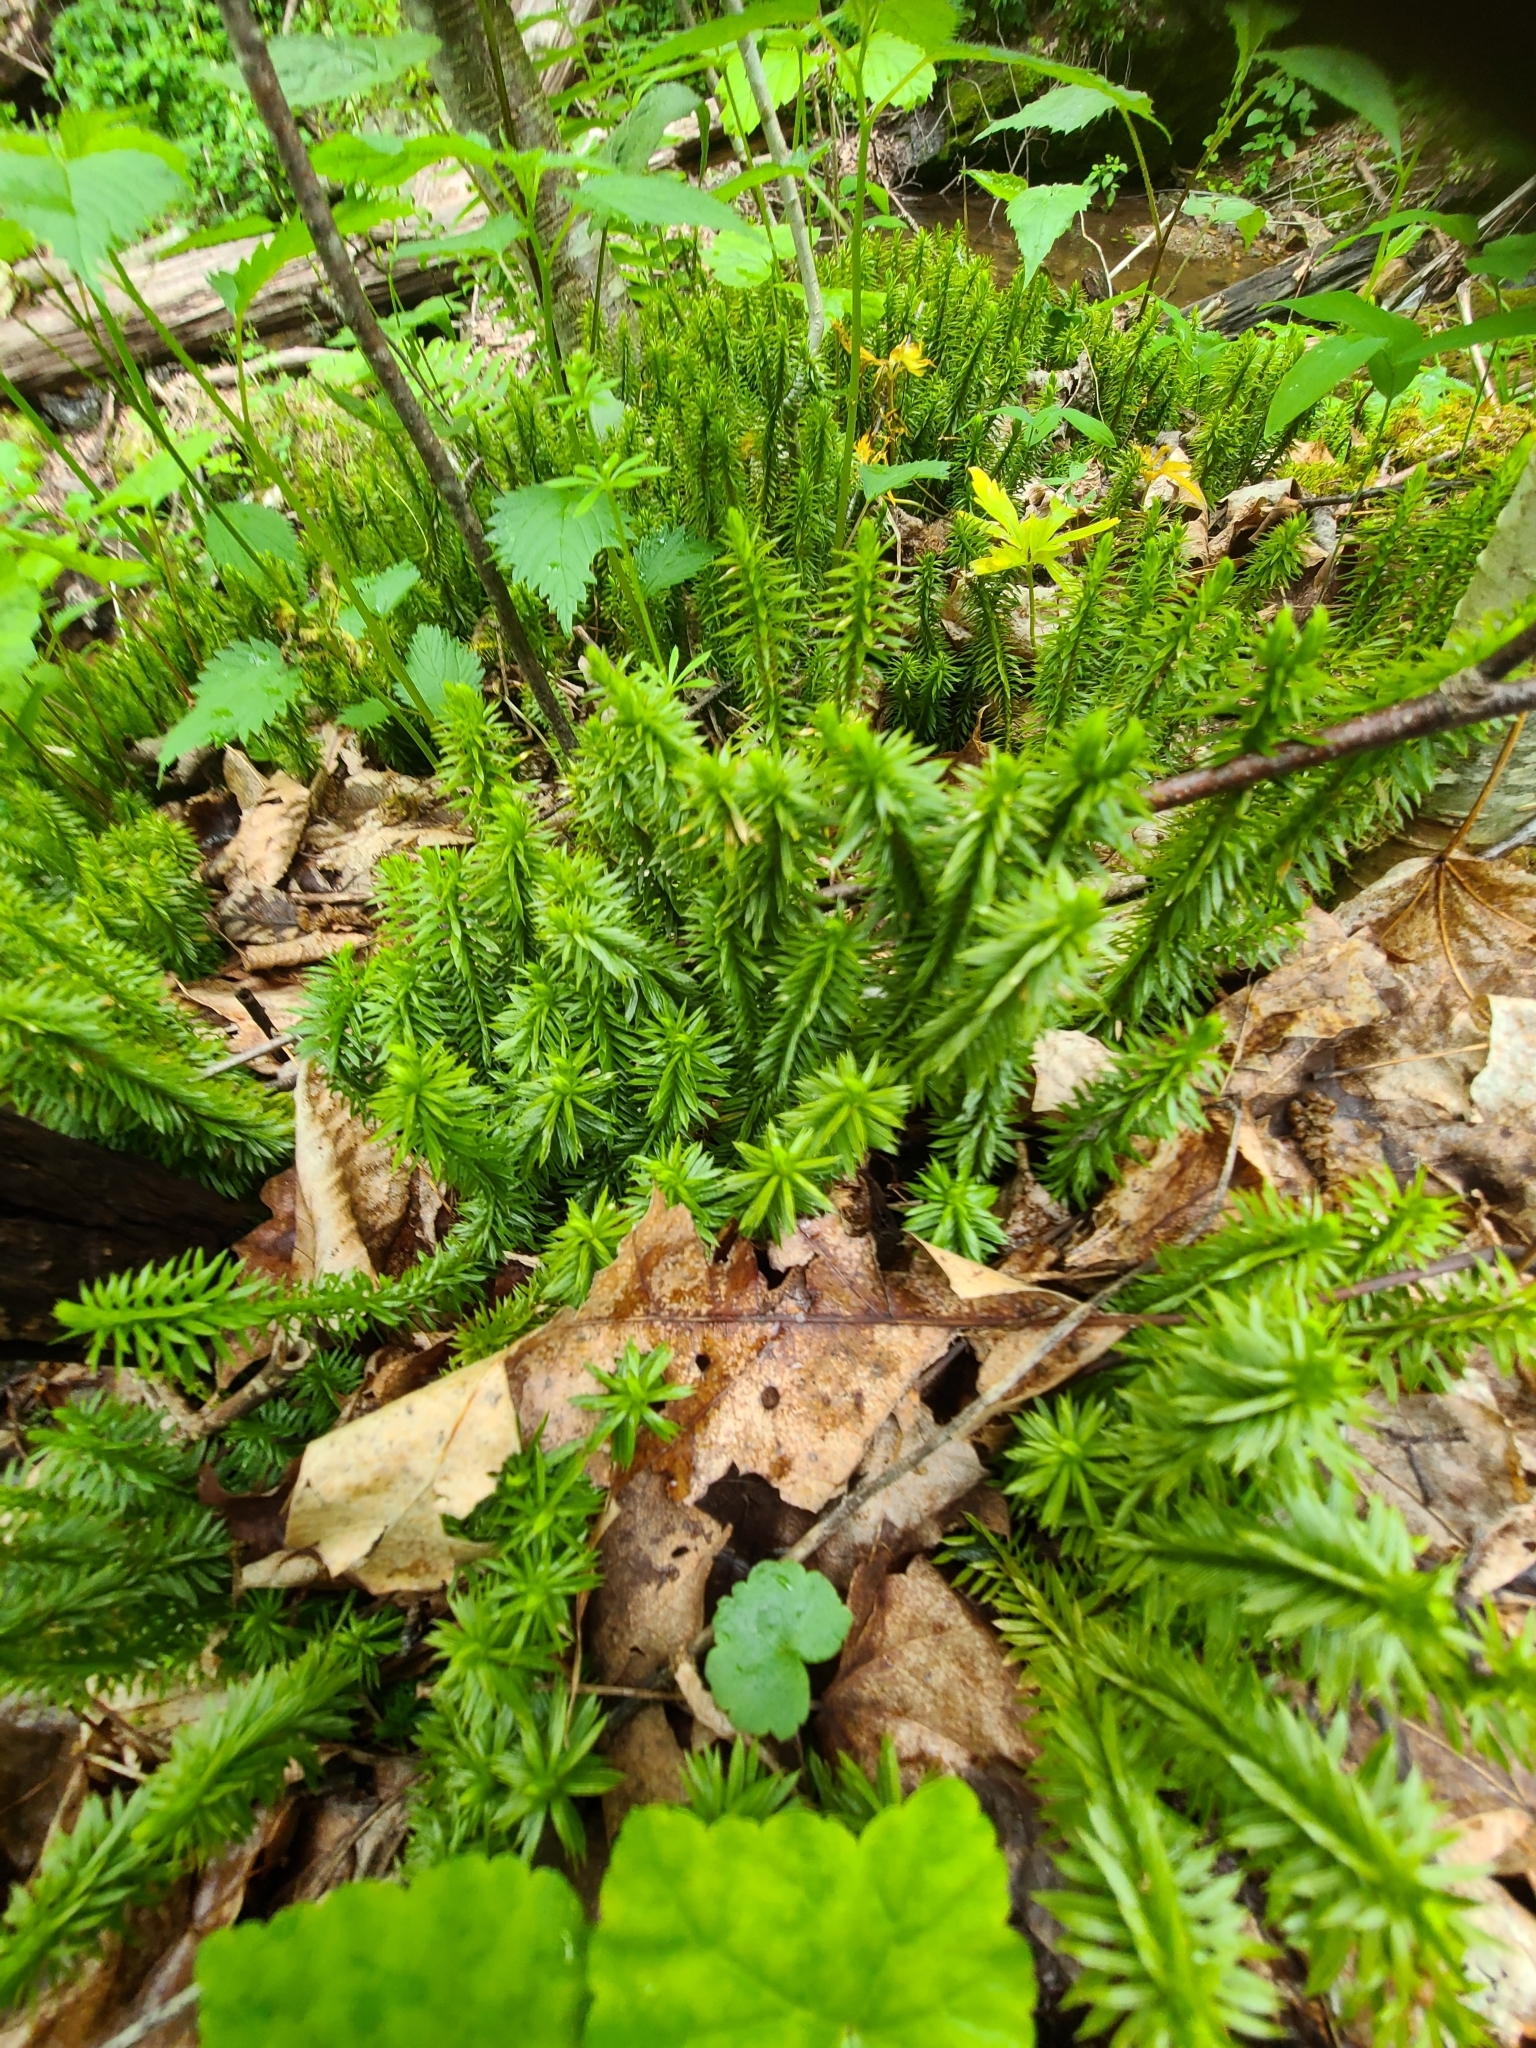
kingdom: Plantae
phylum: Tracheophyta
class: Lycopodiopsida
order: Lycopodiales
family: Lycopodiaceae
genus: Huperzia
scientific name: Huperzia lucidula
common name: Shining clubmoss
